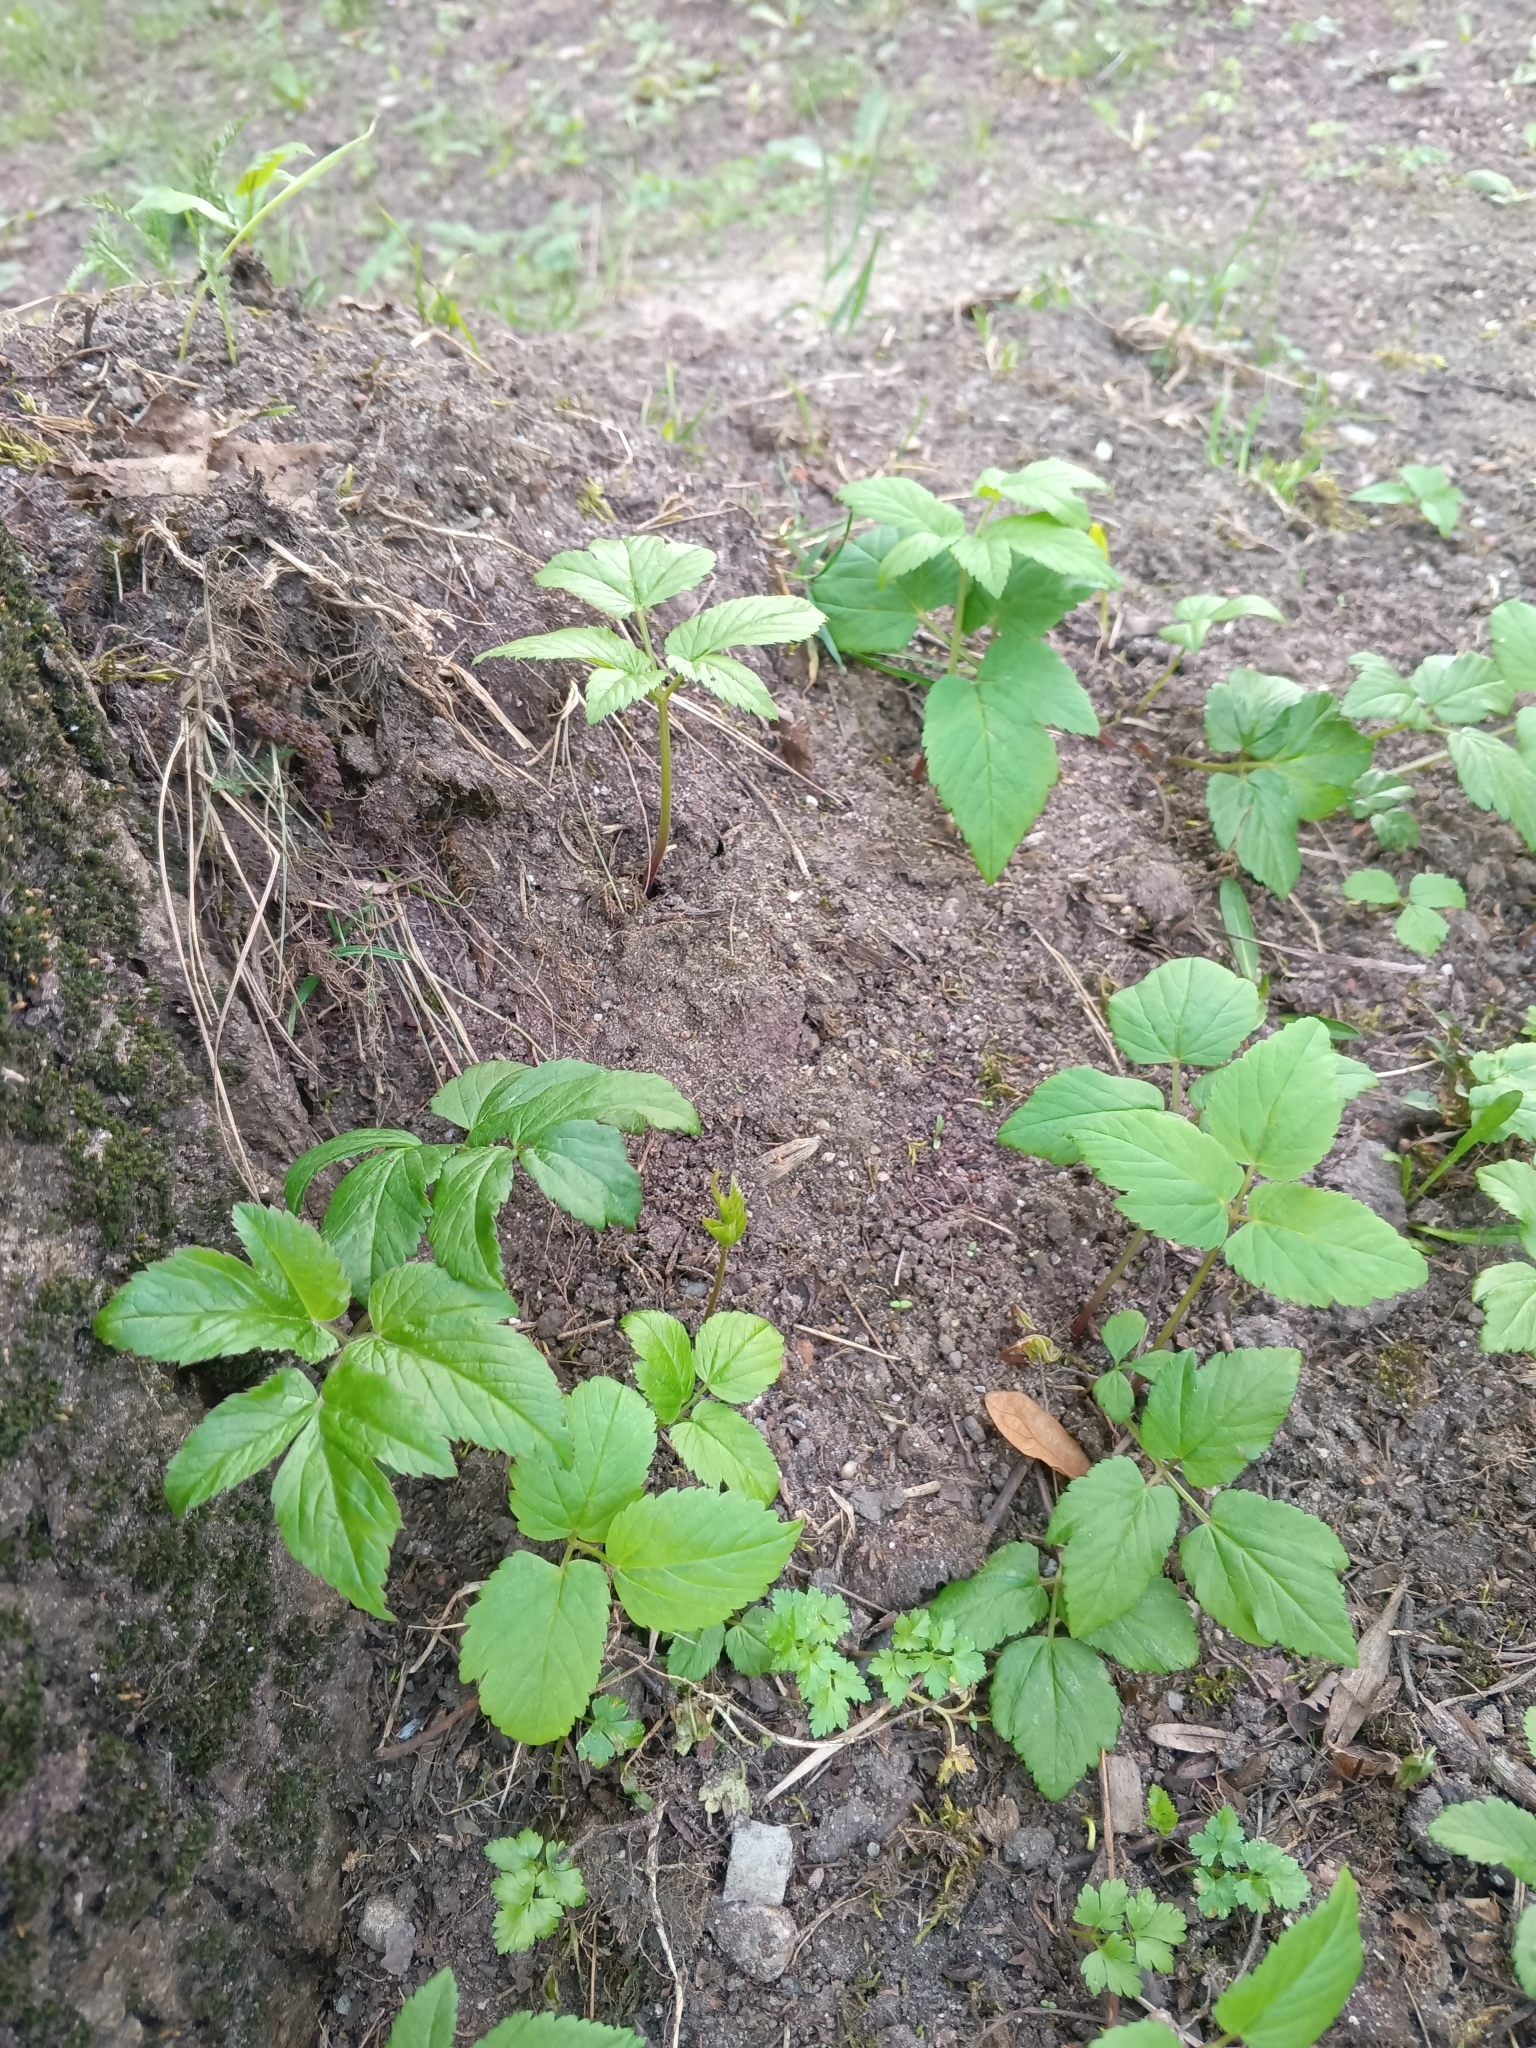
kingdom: Plantae
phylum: Tracheophyta
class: Magnoliopsida
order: Apiales
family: Apiaceae
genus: Aegopodium
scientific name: Aegopodium podagraria
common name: Ground-elder
